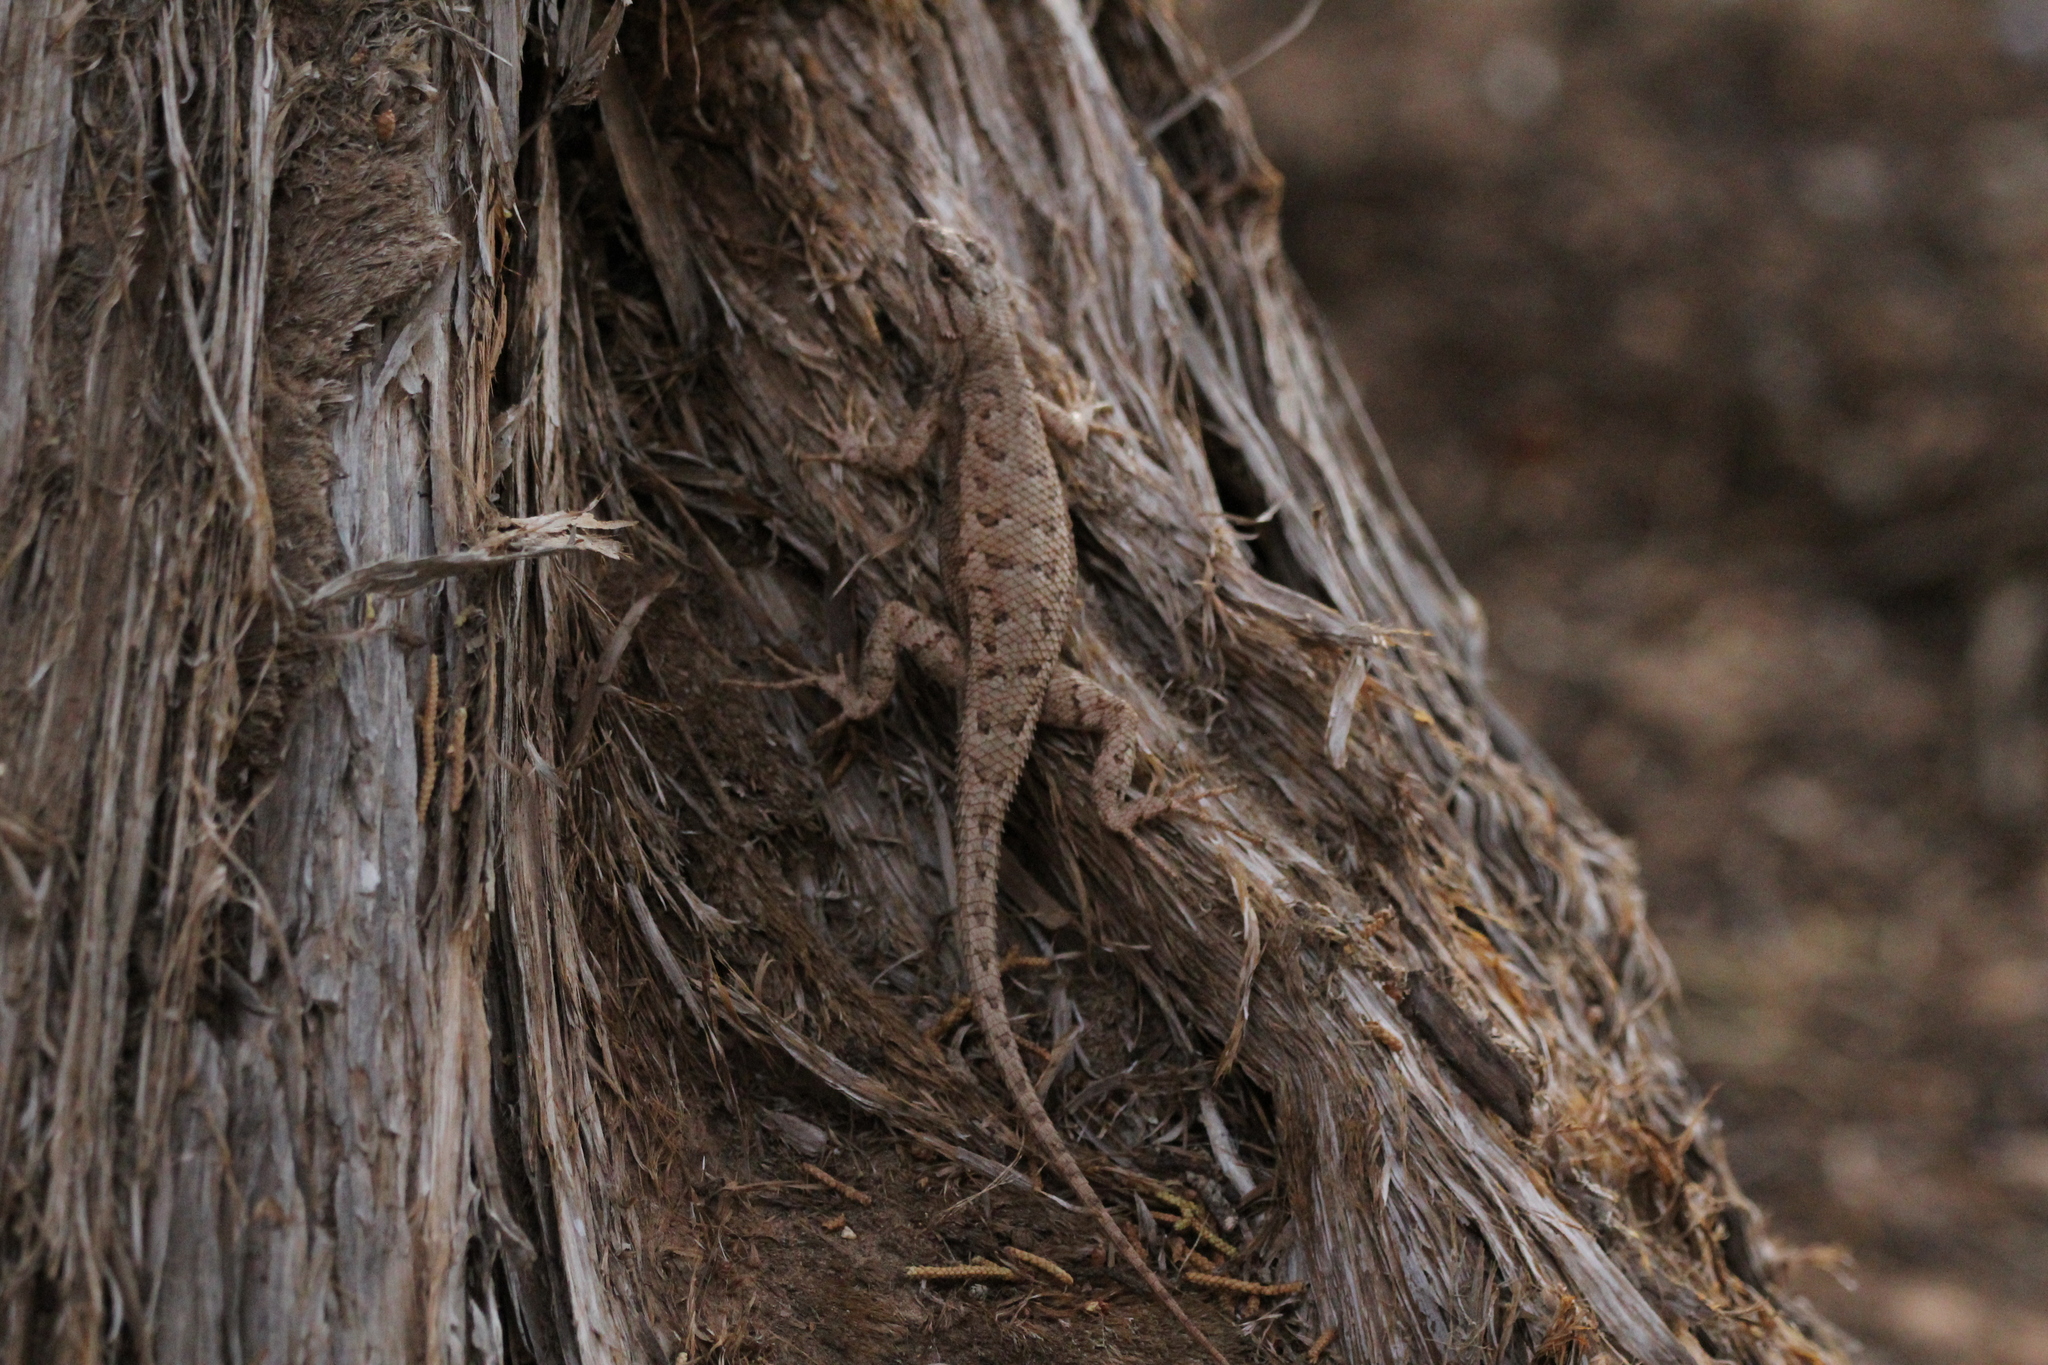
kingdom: Animalia
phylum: Chordata
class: Squamata
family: Phrynosomatidae
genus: Sceloporus
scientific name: Sceloporus tristichus
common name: Plateau fence lizard
